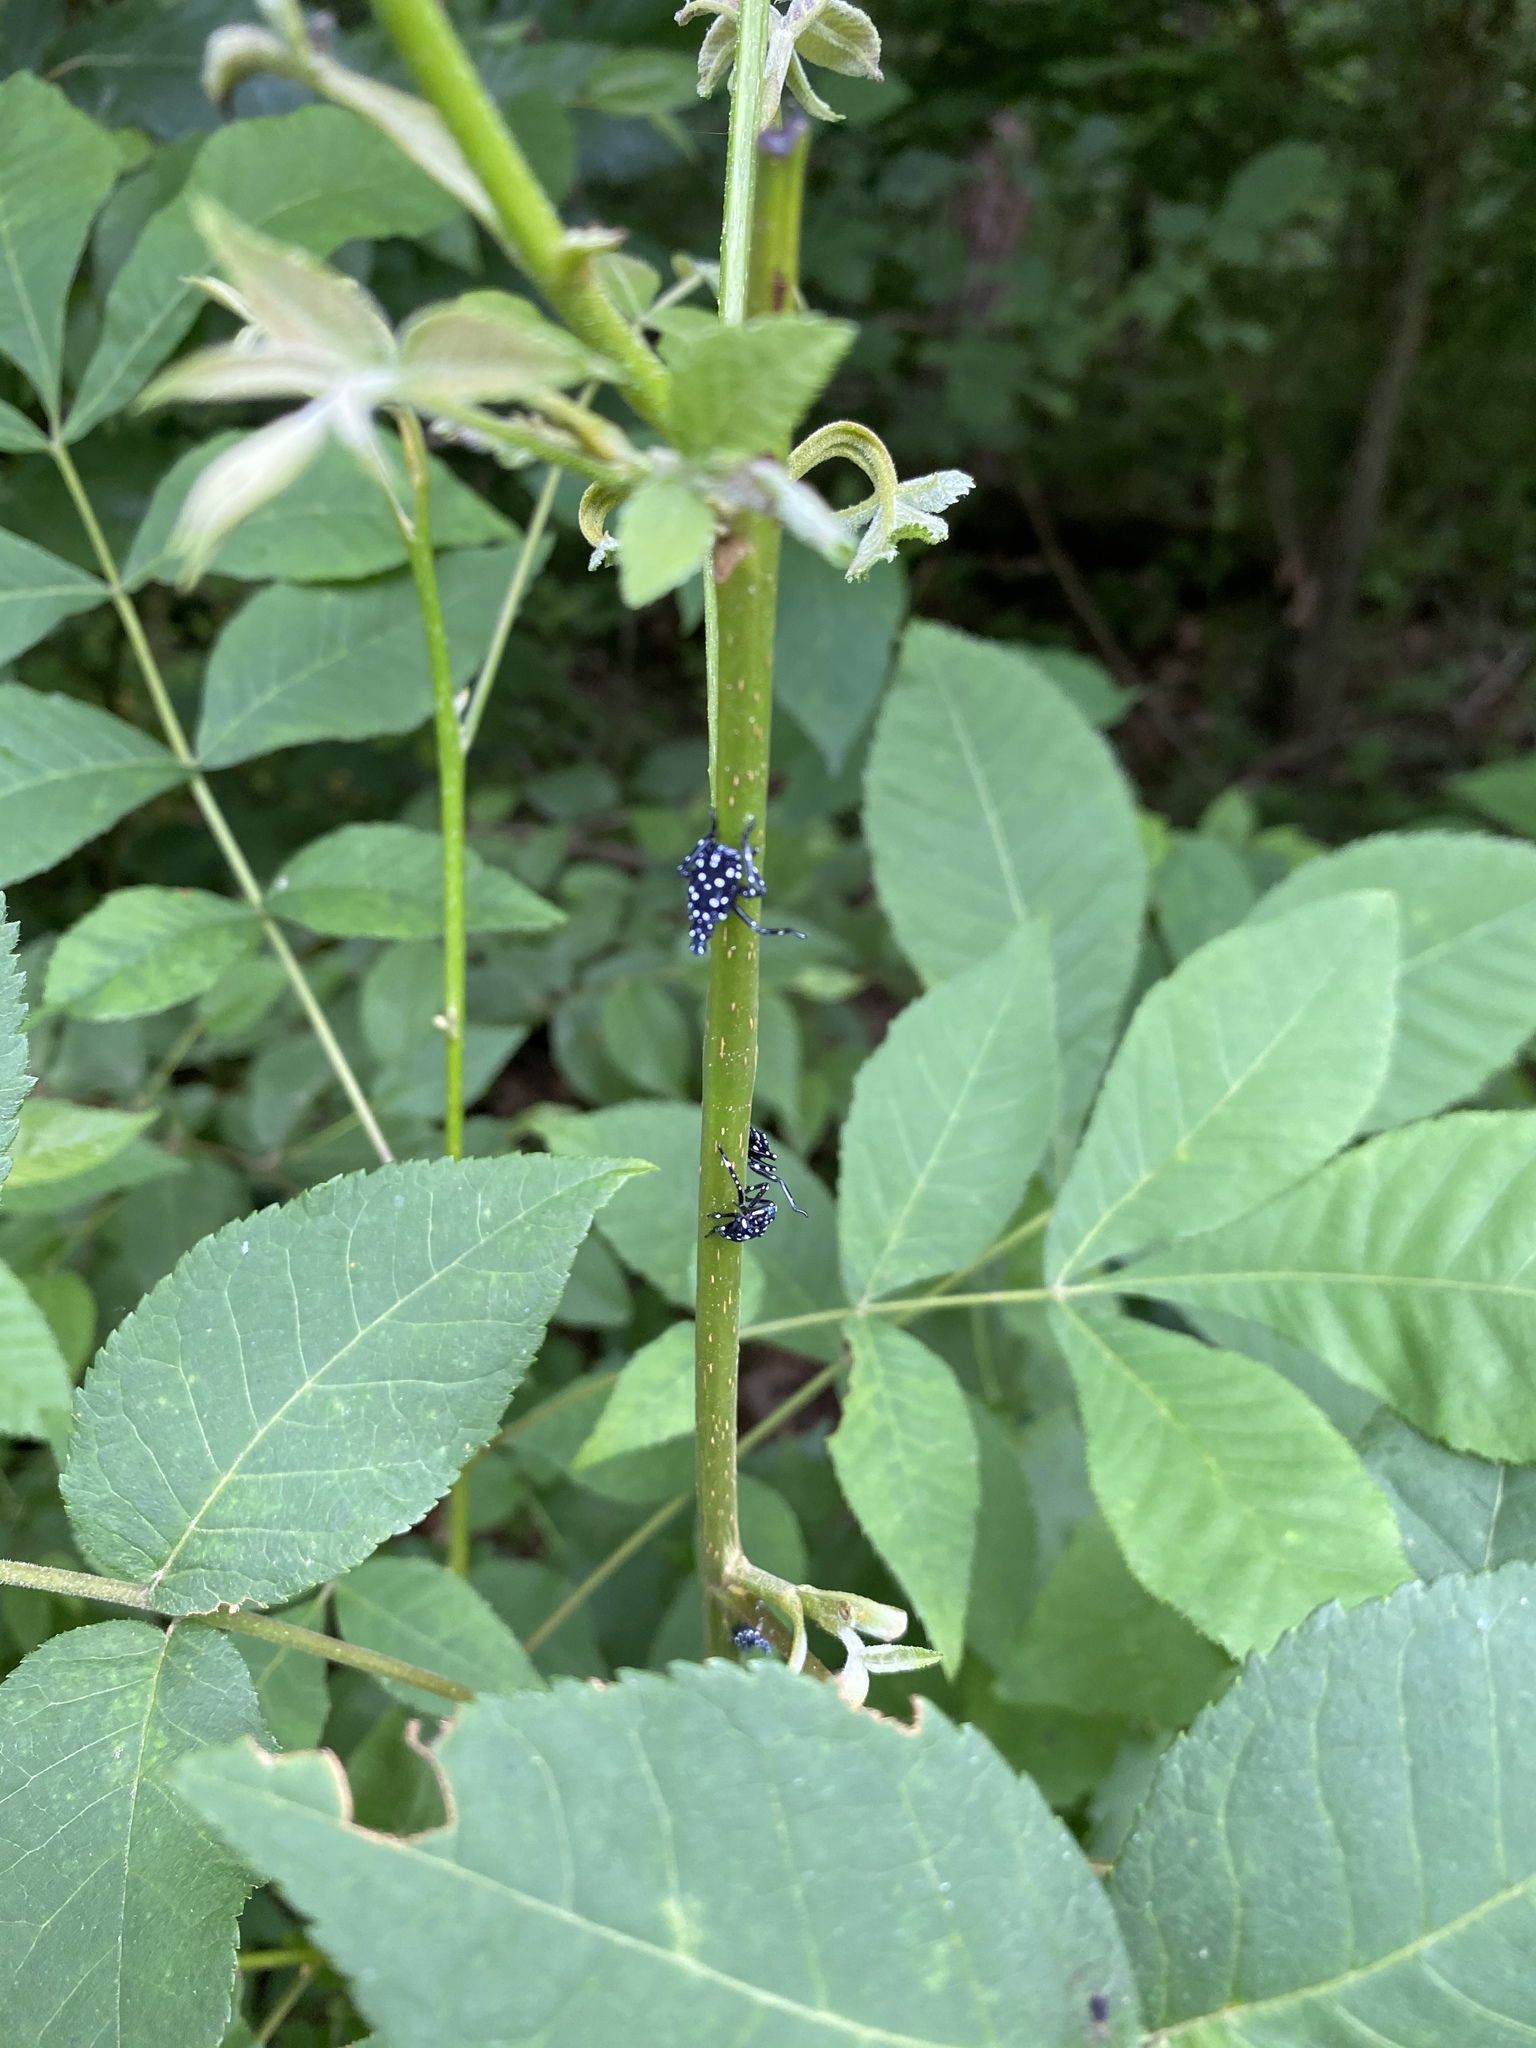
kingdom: Animalia
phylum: Arthropoda
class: Insecta
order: Hemiptera
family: Fulgoridae
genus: Lycorma
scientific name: Lycorma delicatula
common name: Spotted lanternfly
